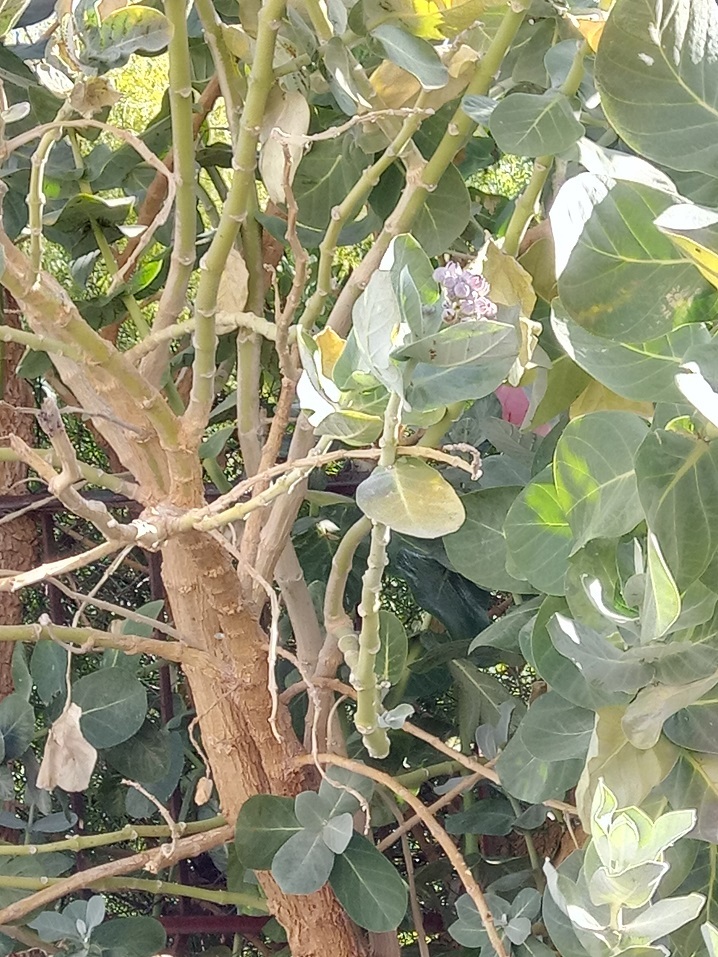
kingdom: Plantae
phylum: Tracheophyta
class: Magnoliopsida
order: Gentianales
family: Apocynaceae
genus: Calotropis
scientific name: Calotropis procera
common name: Roostertree
